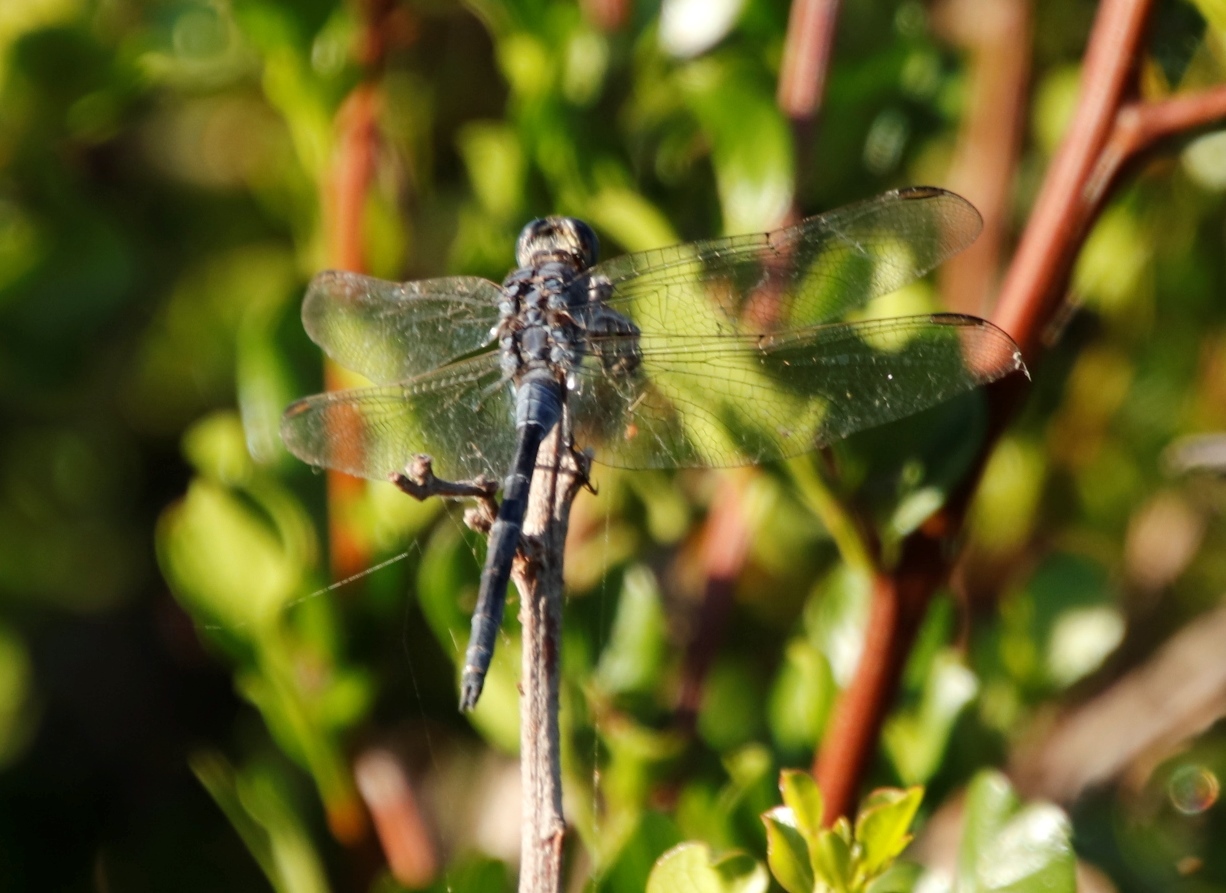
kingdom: Animalia
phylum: Arthropoda
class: Insecta
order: Odonata
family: Libellulidae
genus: Orthetrum
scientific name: Orthetrum trinacria
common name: Long skimmer
